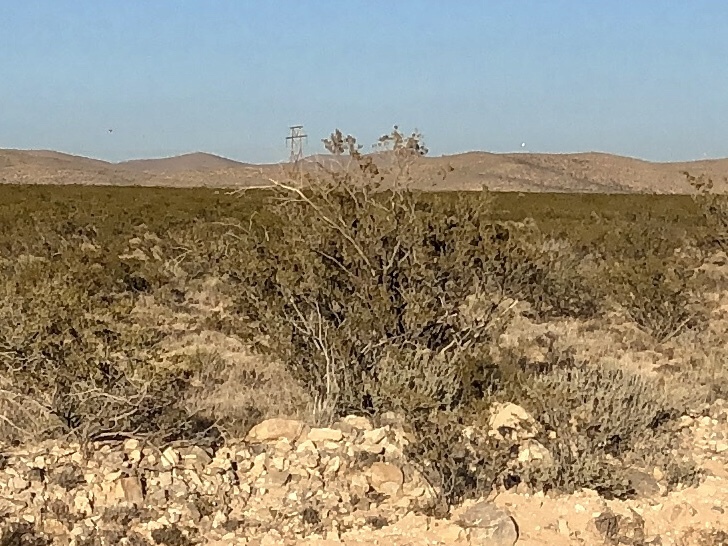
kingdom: Plantae
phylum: Tracheophyta
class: Magnoliopsida
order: Zygophyllales
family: Zygophyllaceae
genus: Larrea
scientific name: Larrea tridentata
